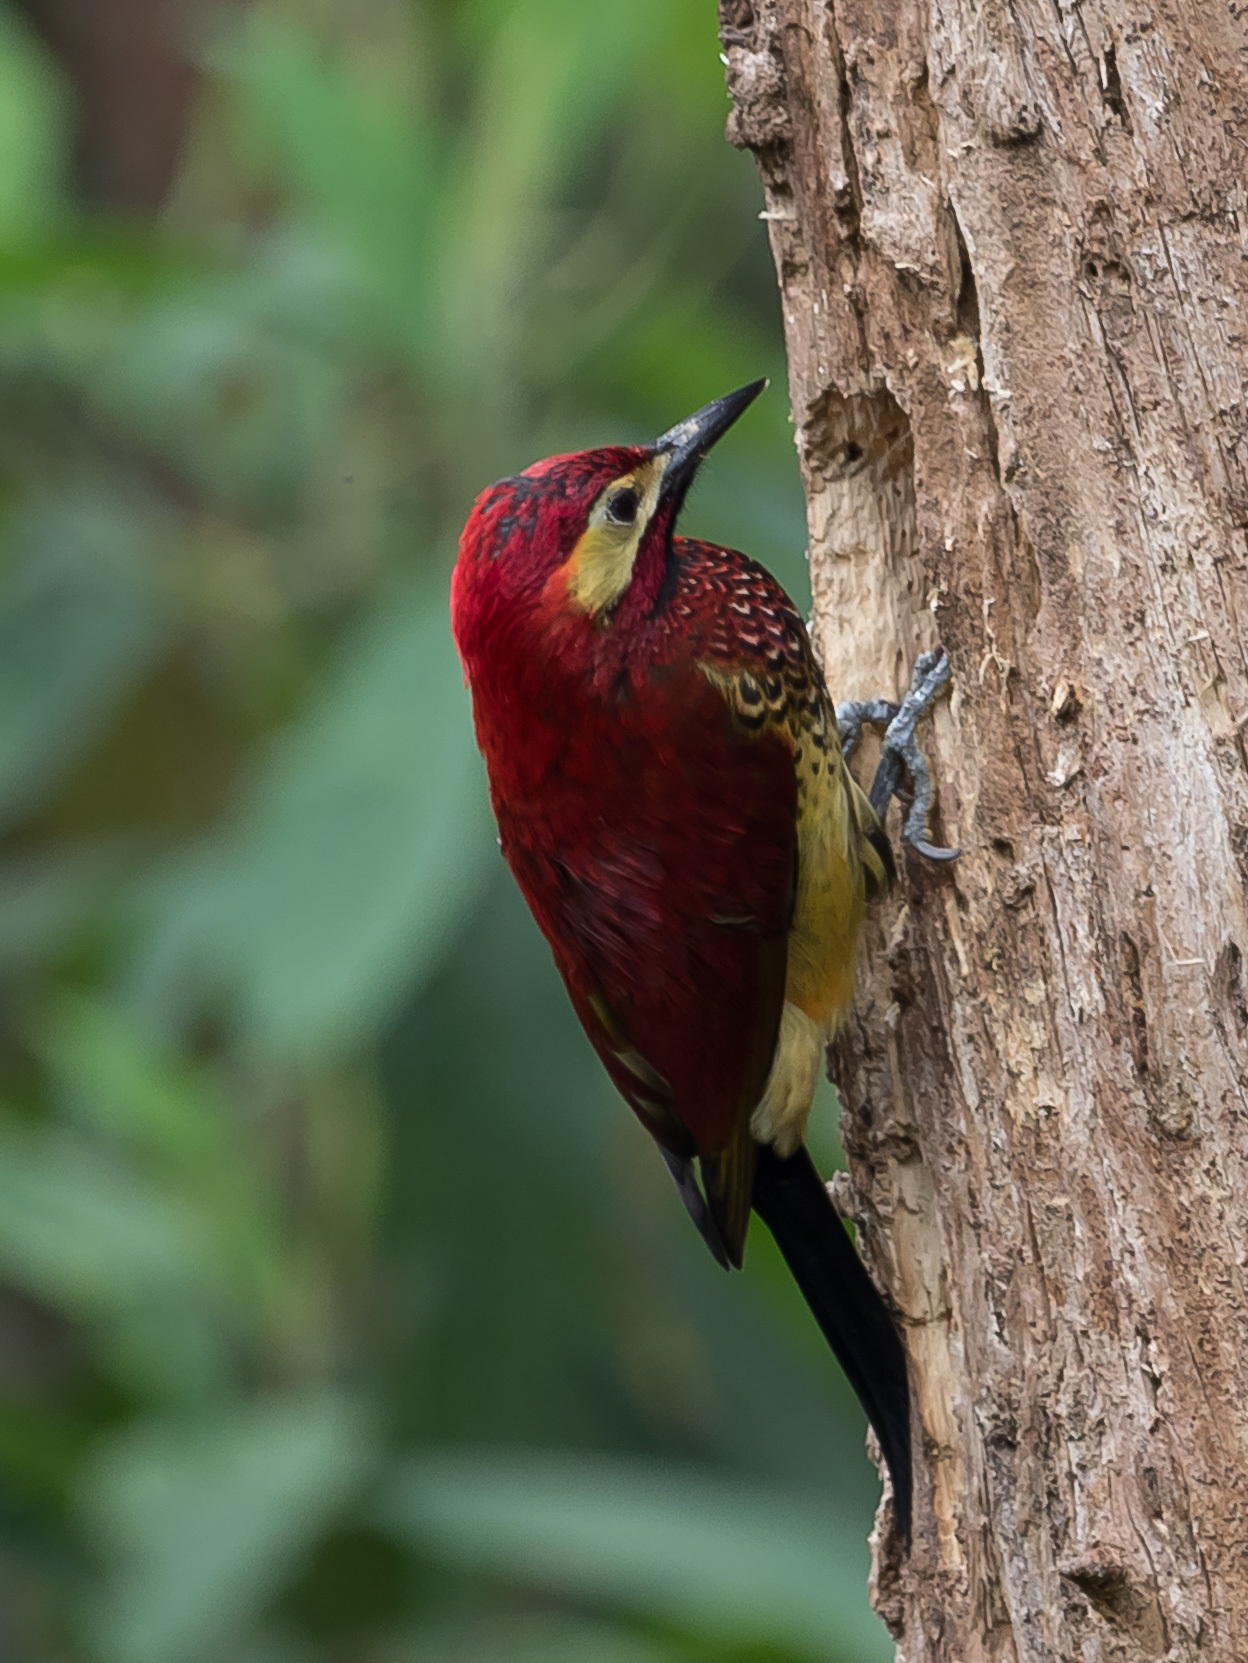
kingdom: Animalia
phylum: Chordata
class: Aves
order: Piciformes
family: Picidae
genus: Colaptes
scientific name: Colaptes rivolii
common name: Crimson-mantled woodpecker
